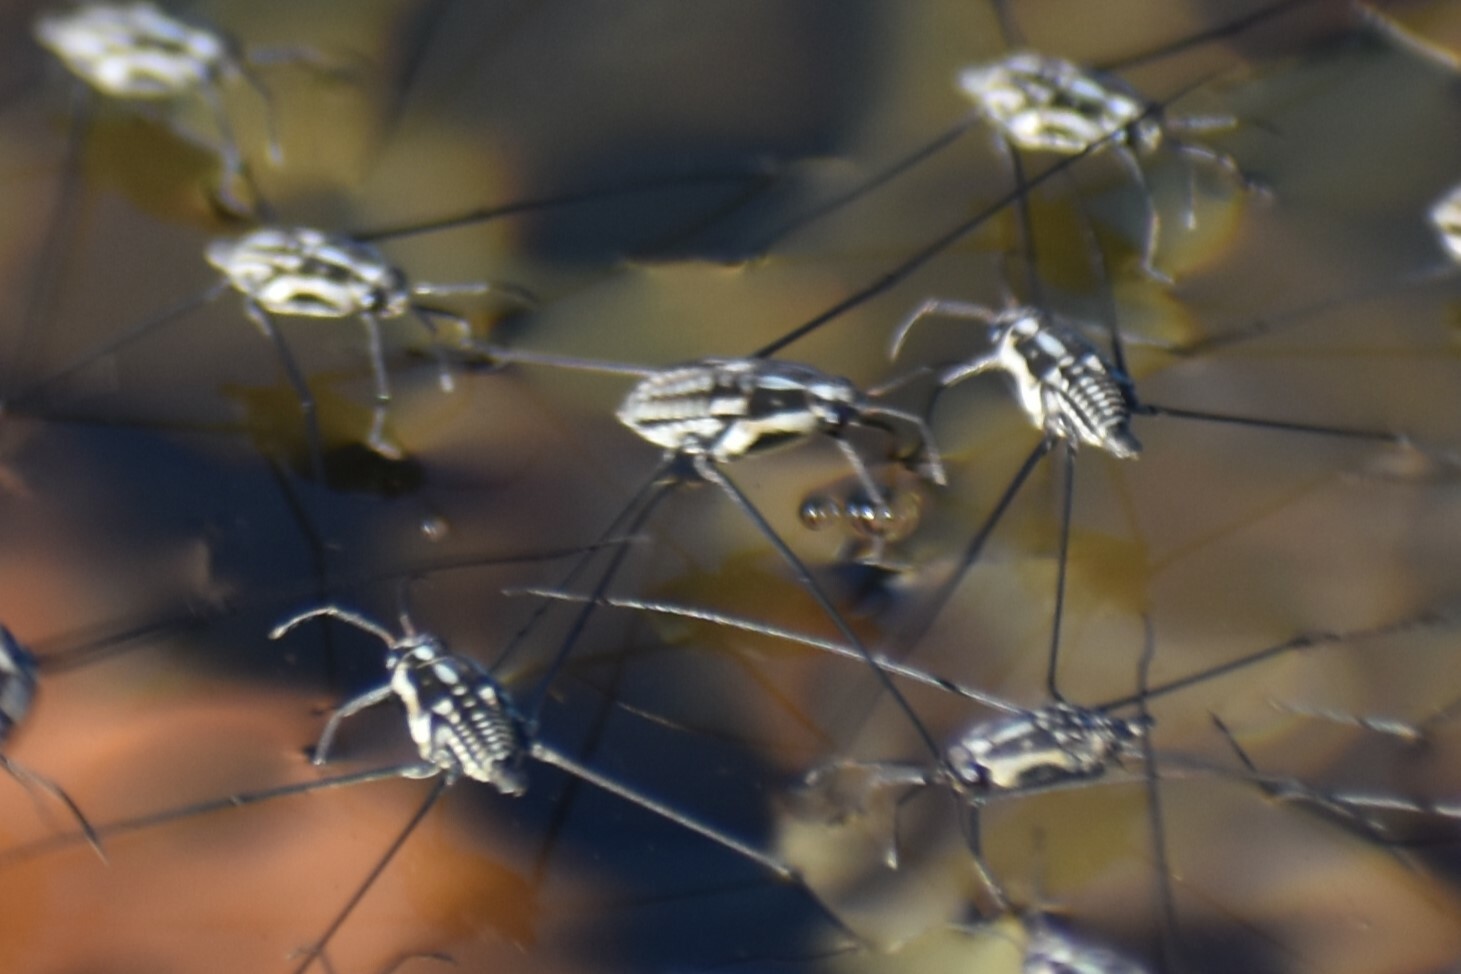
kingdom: Animalia
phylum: Arthropoda
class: Insecta
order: Hemiptera
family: Gerridae
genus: Metrobates
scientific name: Metrobates trux
